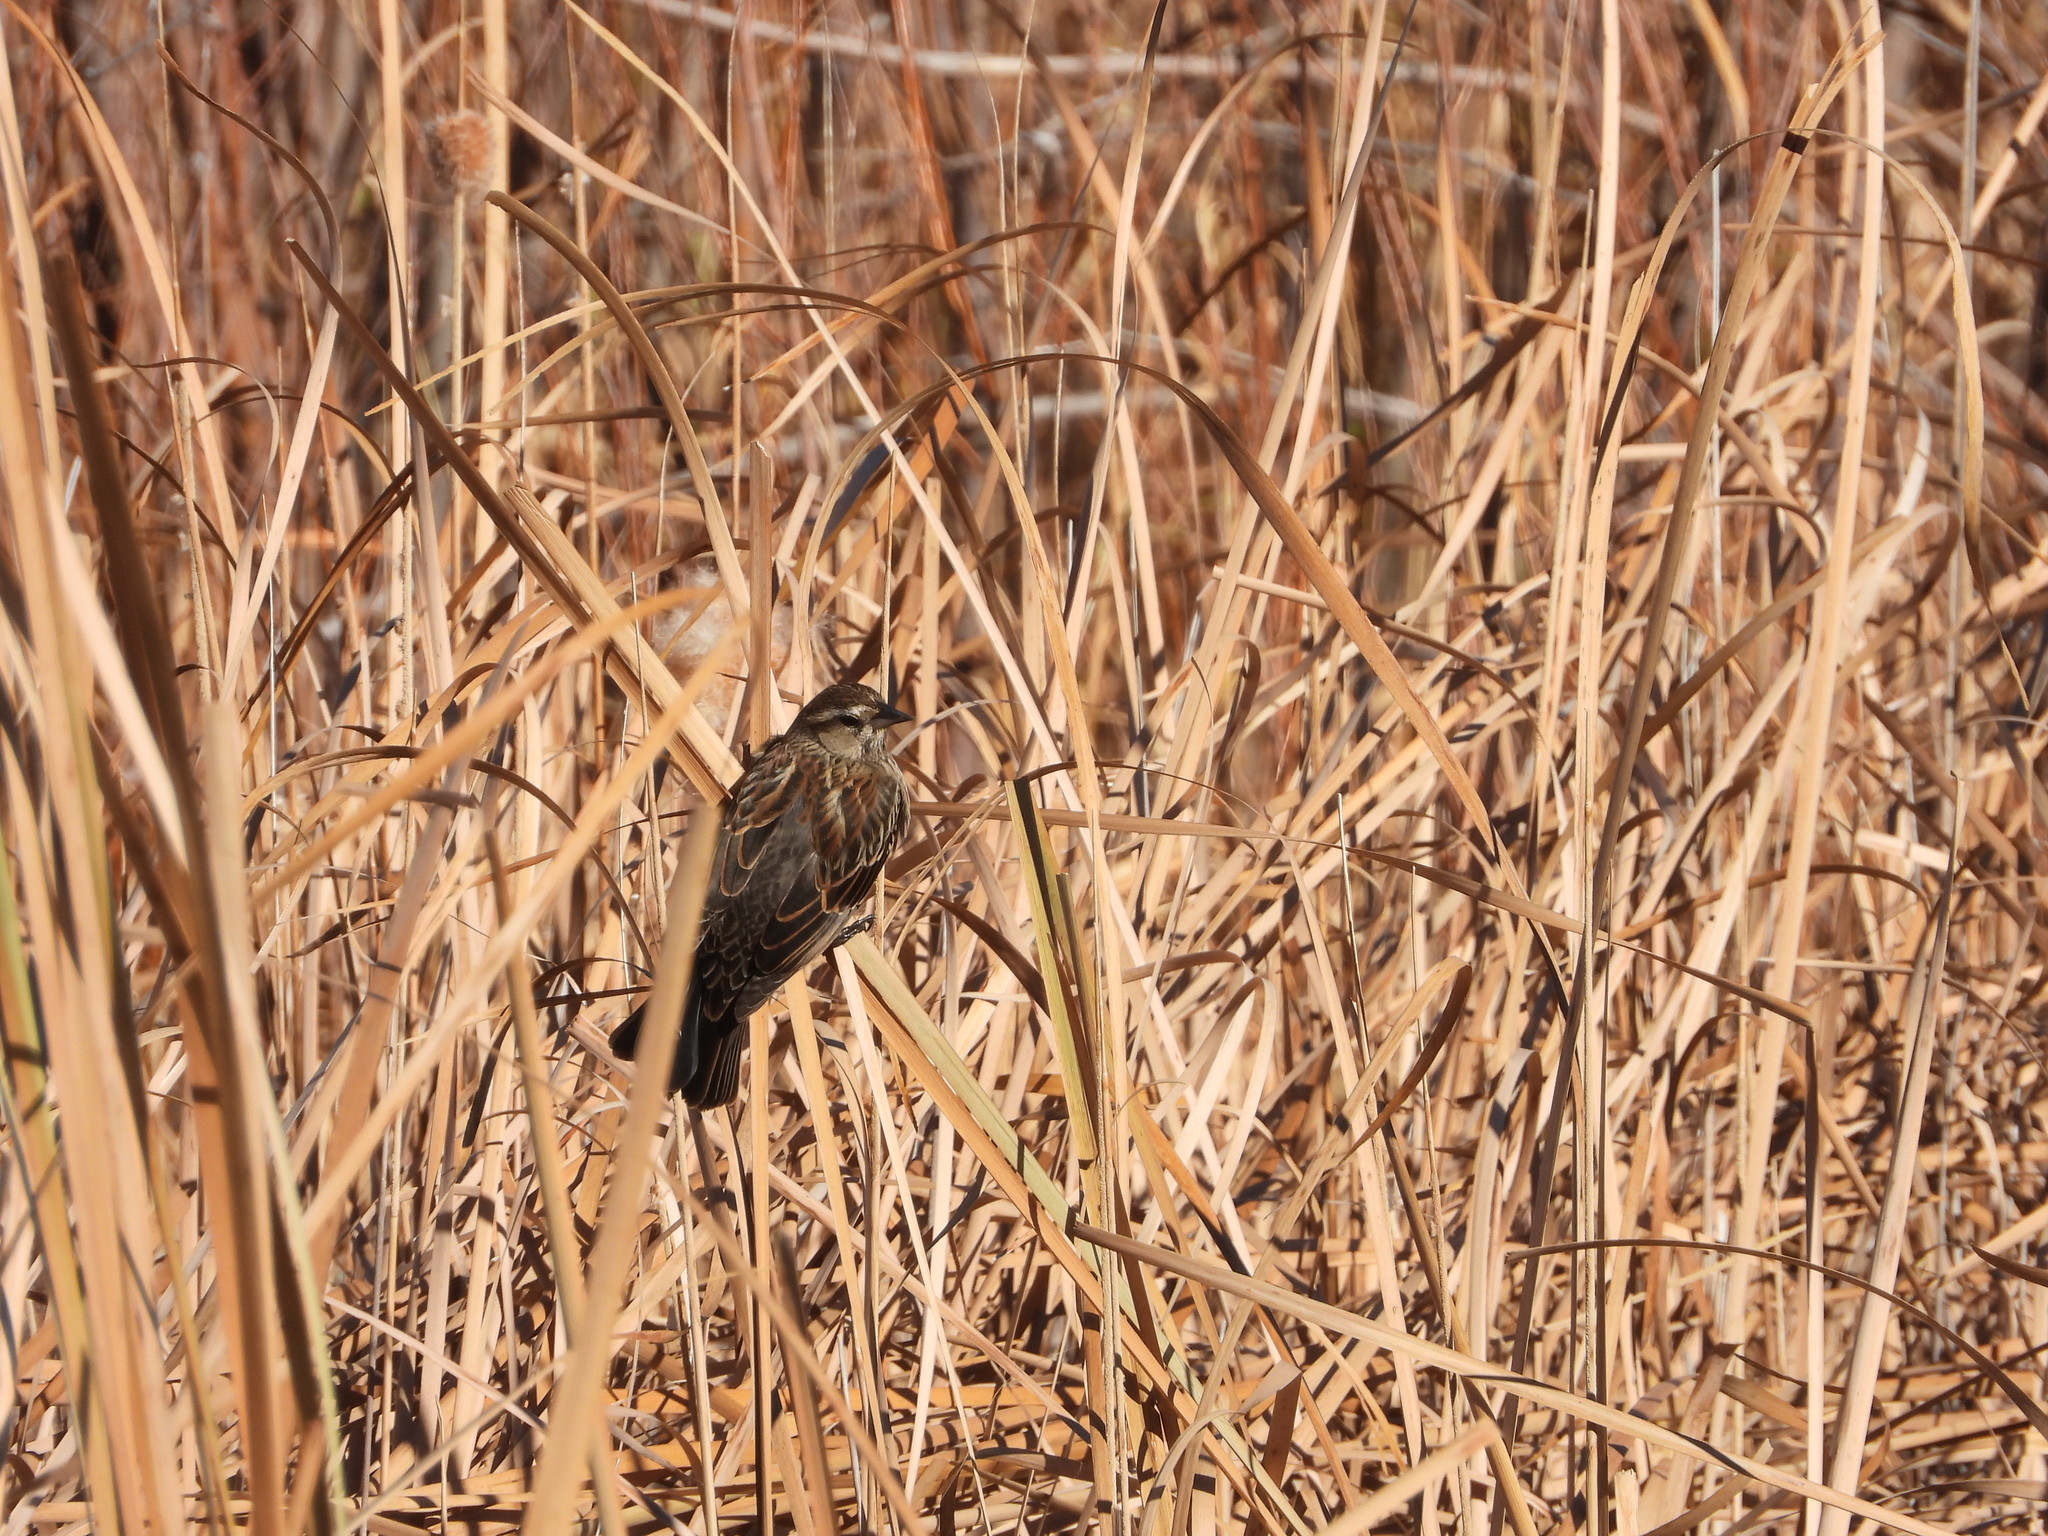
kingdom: Animalia
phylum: Chordata
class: Aves
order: Passeriformes
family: Icteridae
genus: Agelaius
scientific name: Agelaius phoeniceus
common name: Red-winged blackbird
